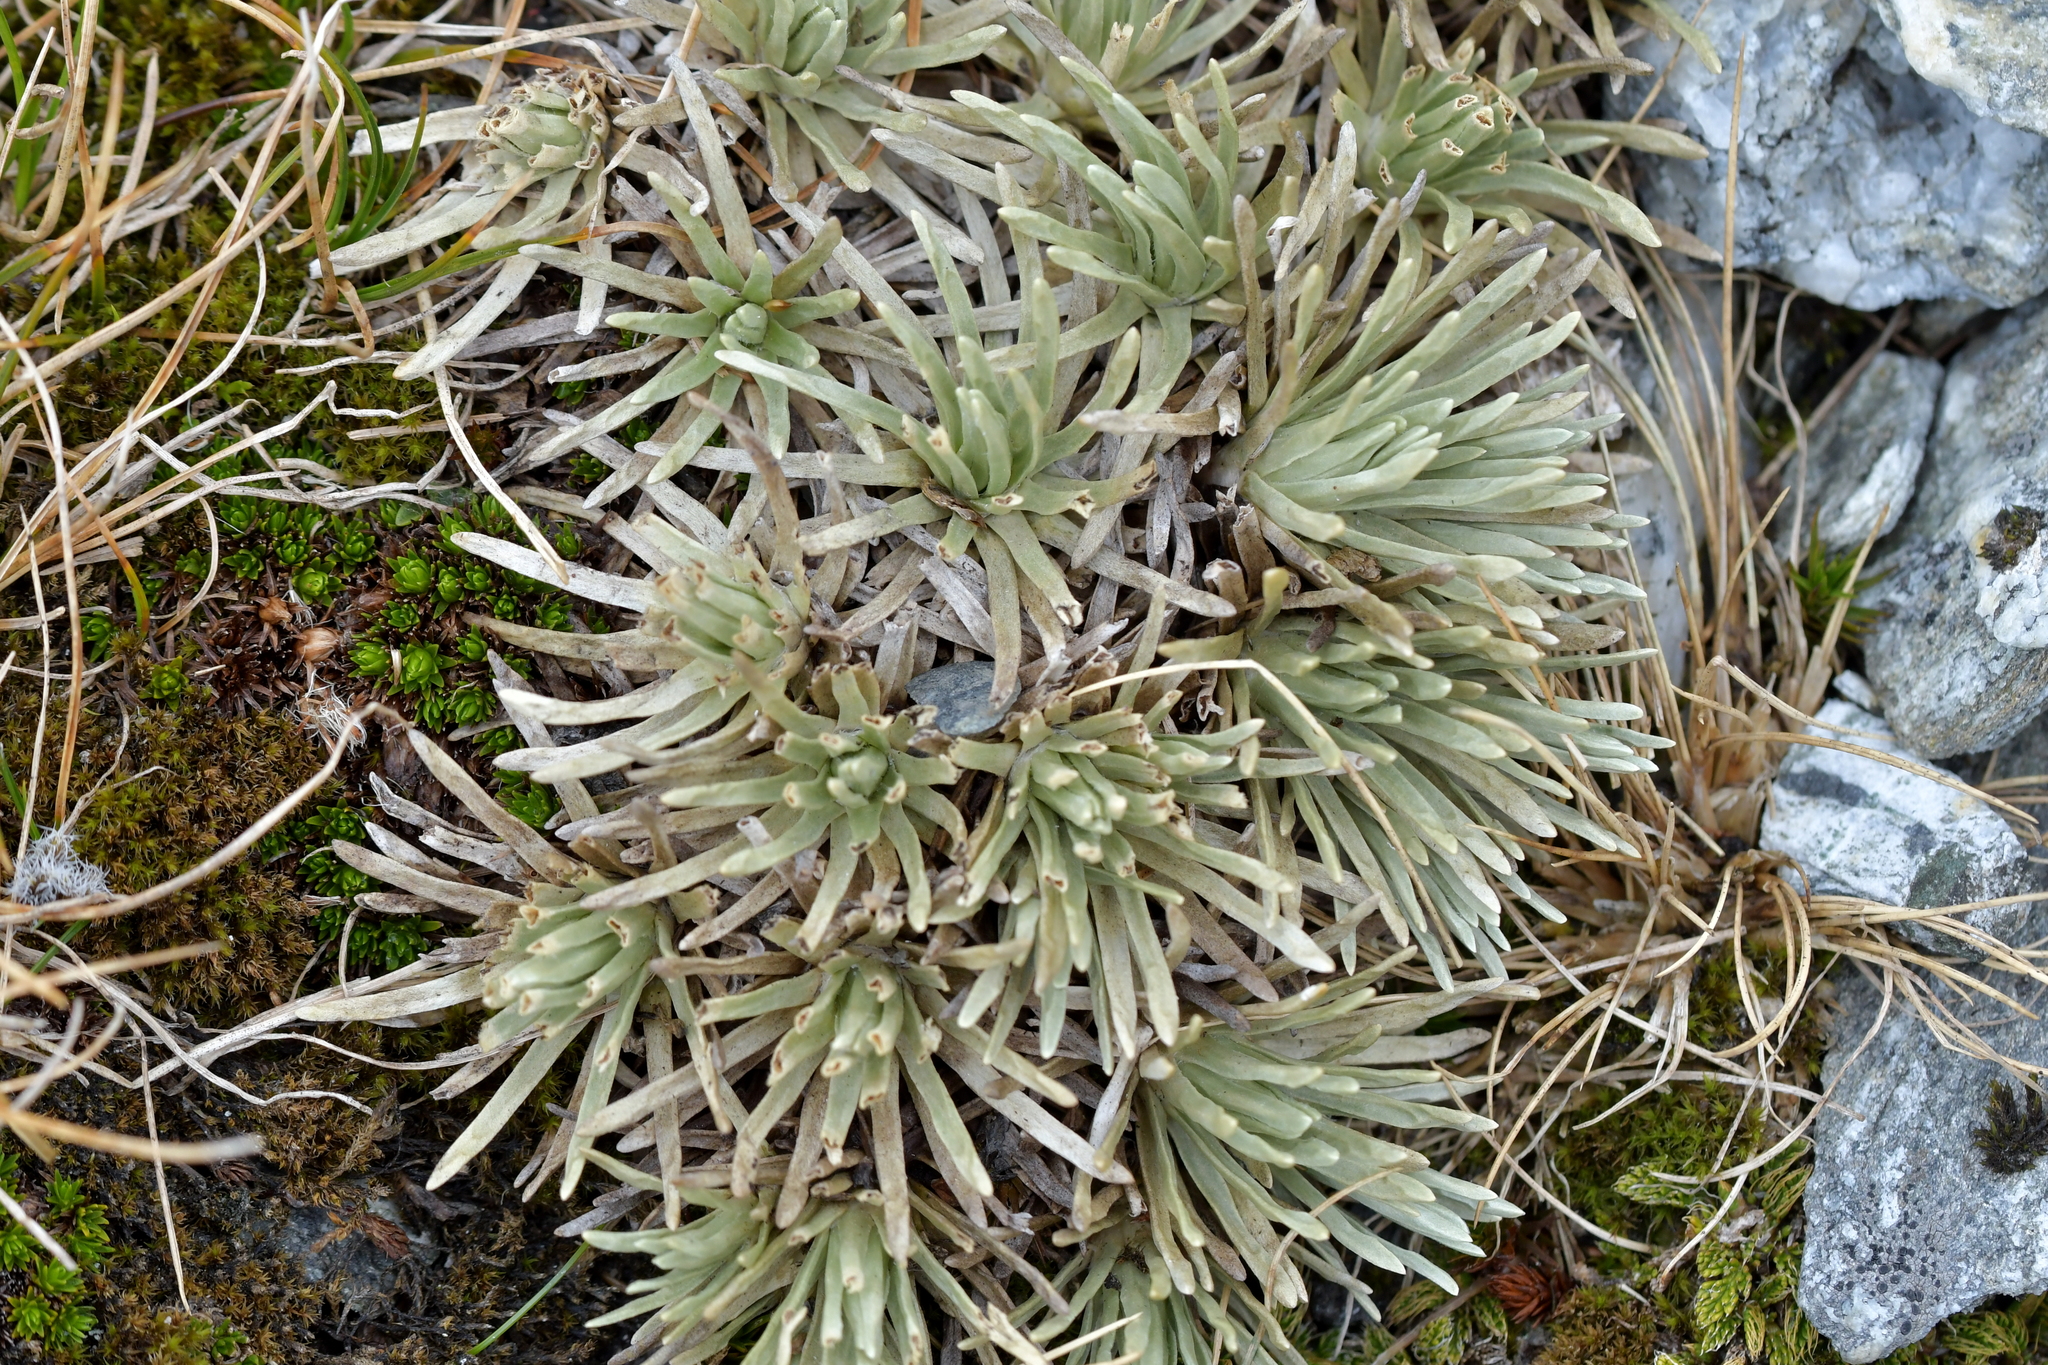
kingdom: Plantae
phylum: Tracheophyta
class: Magnoliopsida
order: Asterales
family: Asteraceae
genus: Celmisia
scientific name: Celmisia sessiliflora
